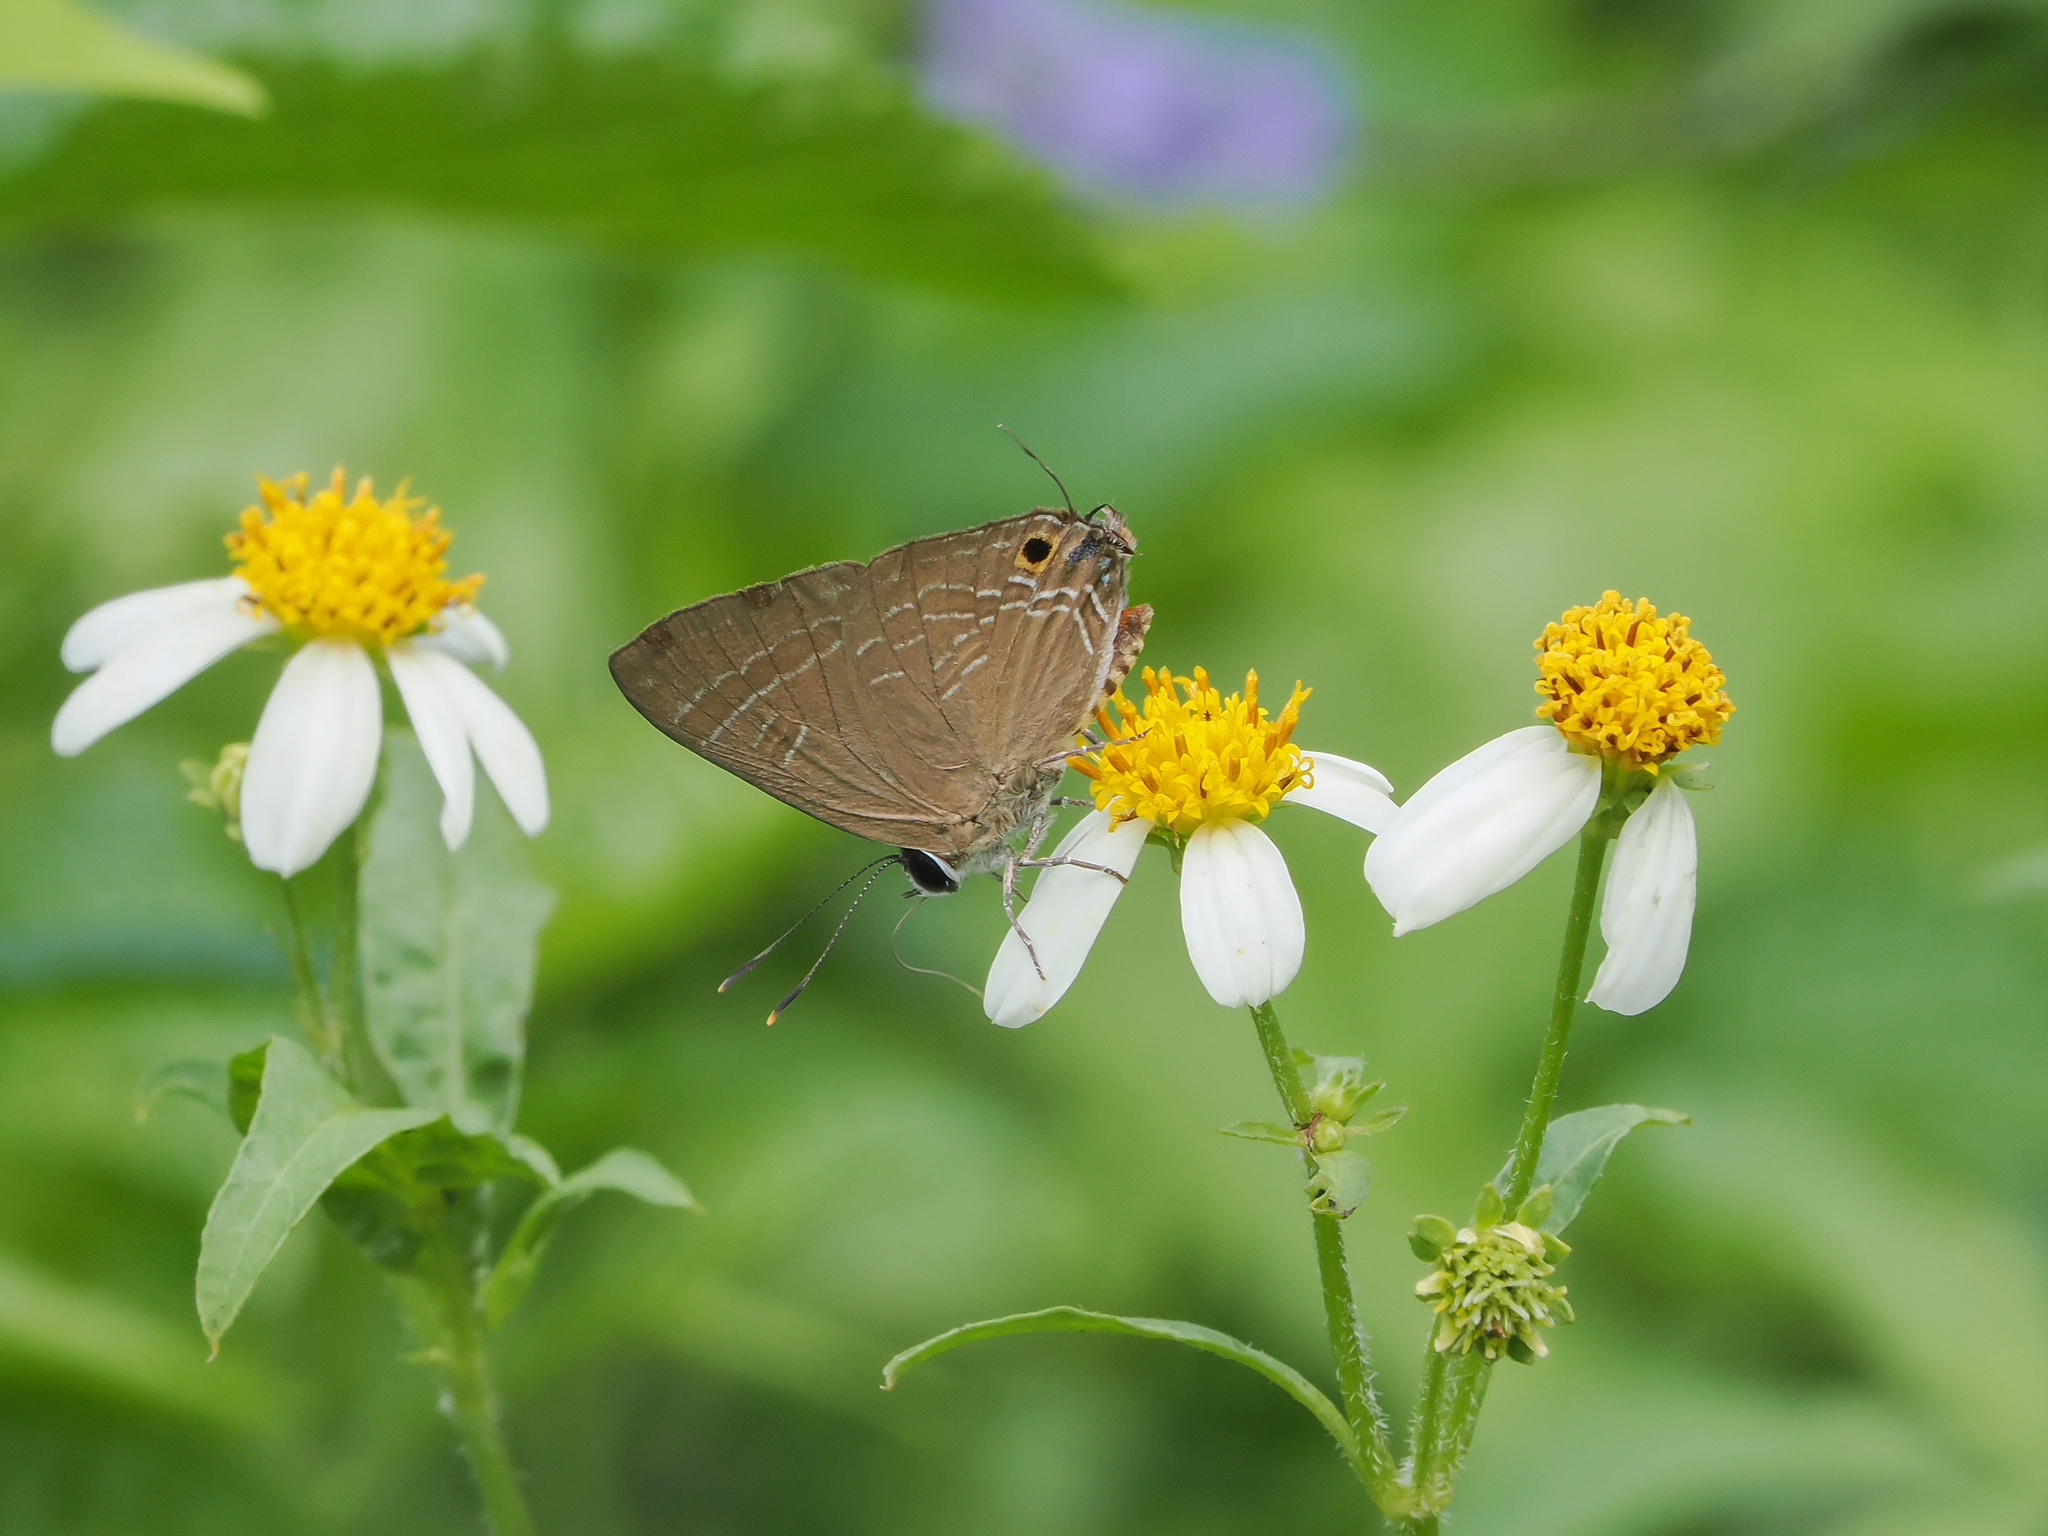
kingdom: Animalia
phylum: Arthropoda
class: Insecta
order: Lepidoptera
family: Lycaenidae
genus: Deudorix
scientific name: Deudorix epijarbas
